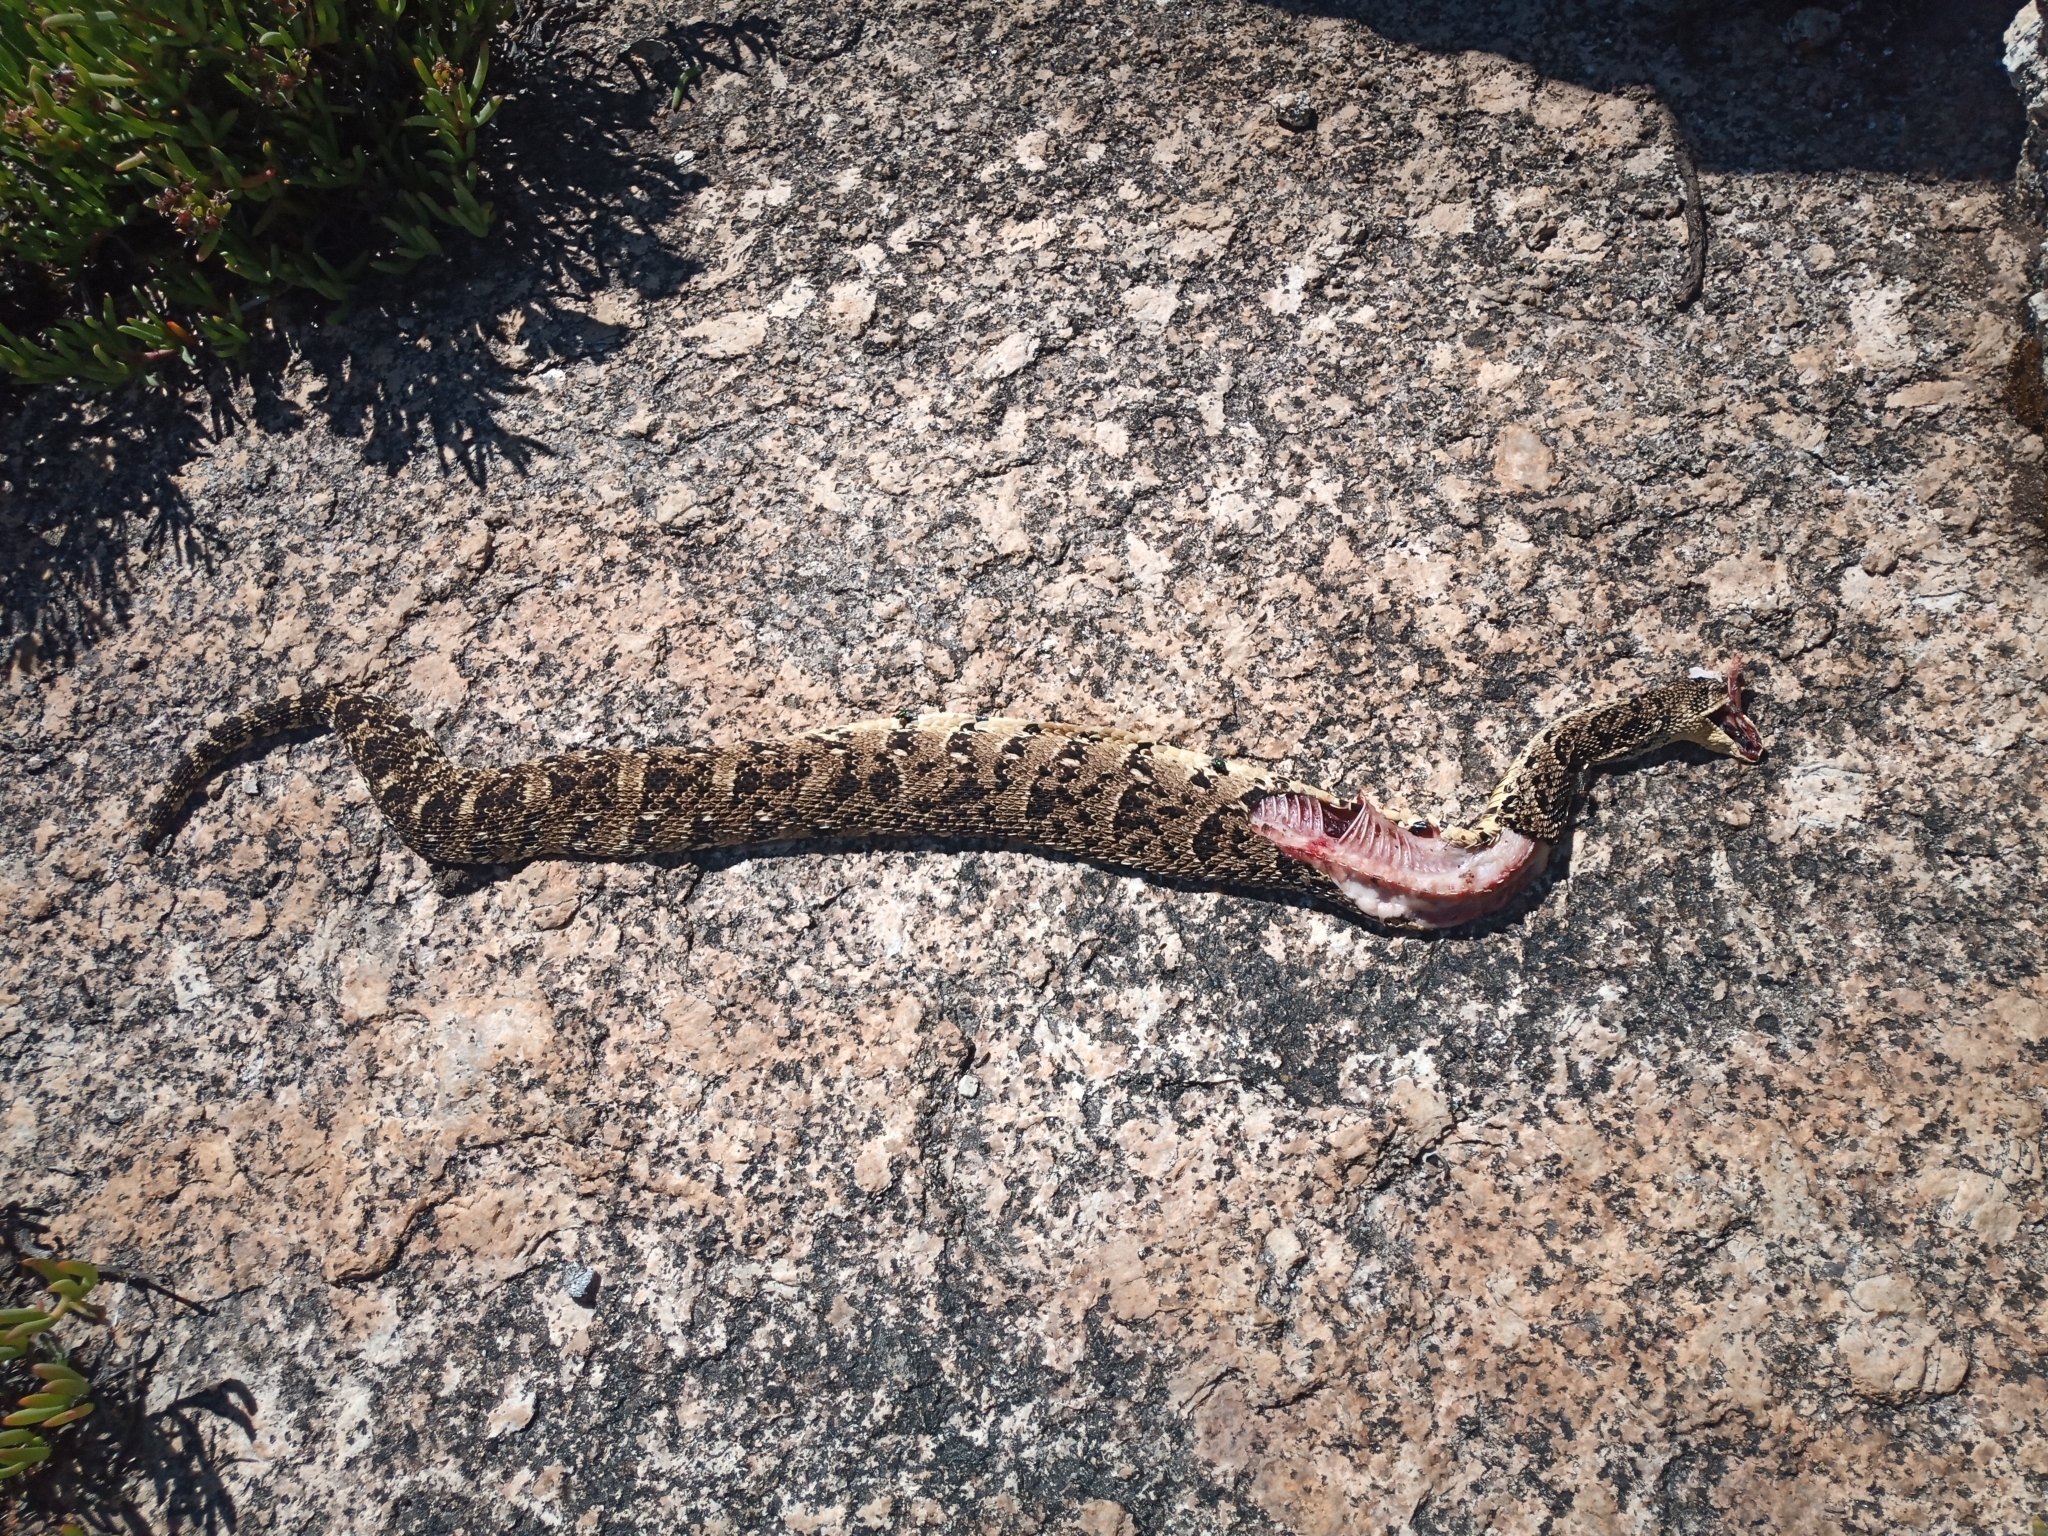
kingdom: Animalia
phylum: Chordata
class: Squamata
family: Viperidae
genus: Bitis
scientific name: Bitis arietans
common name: Puff adder
